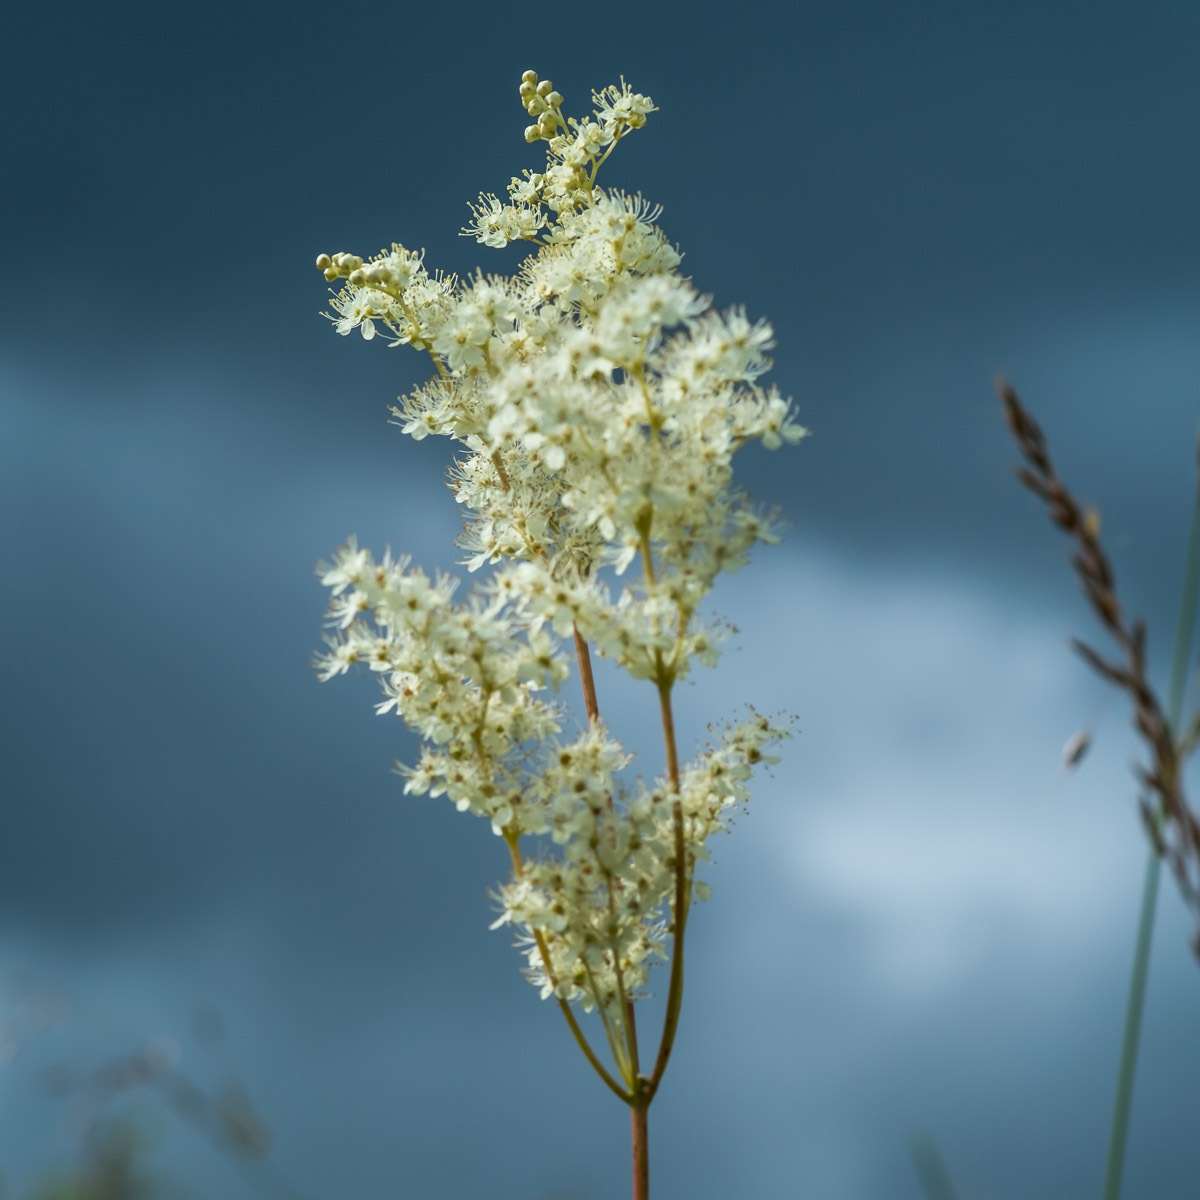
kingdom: Plantae
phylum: Tracheophyta
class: Magnoliopsida
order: Rosales
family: Rosaceae
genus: Filipendula
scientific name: Filipendula ulmaria
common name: Meadowsweet
